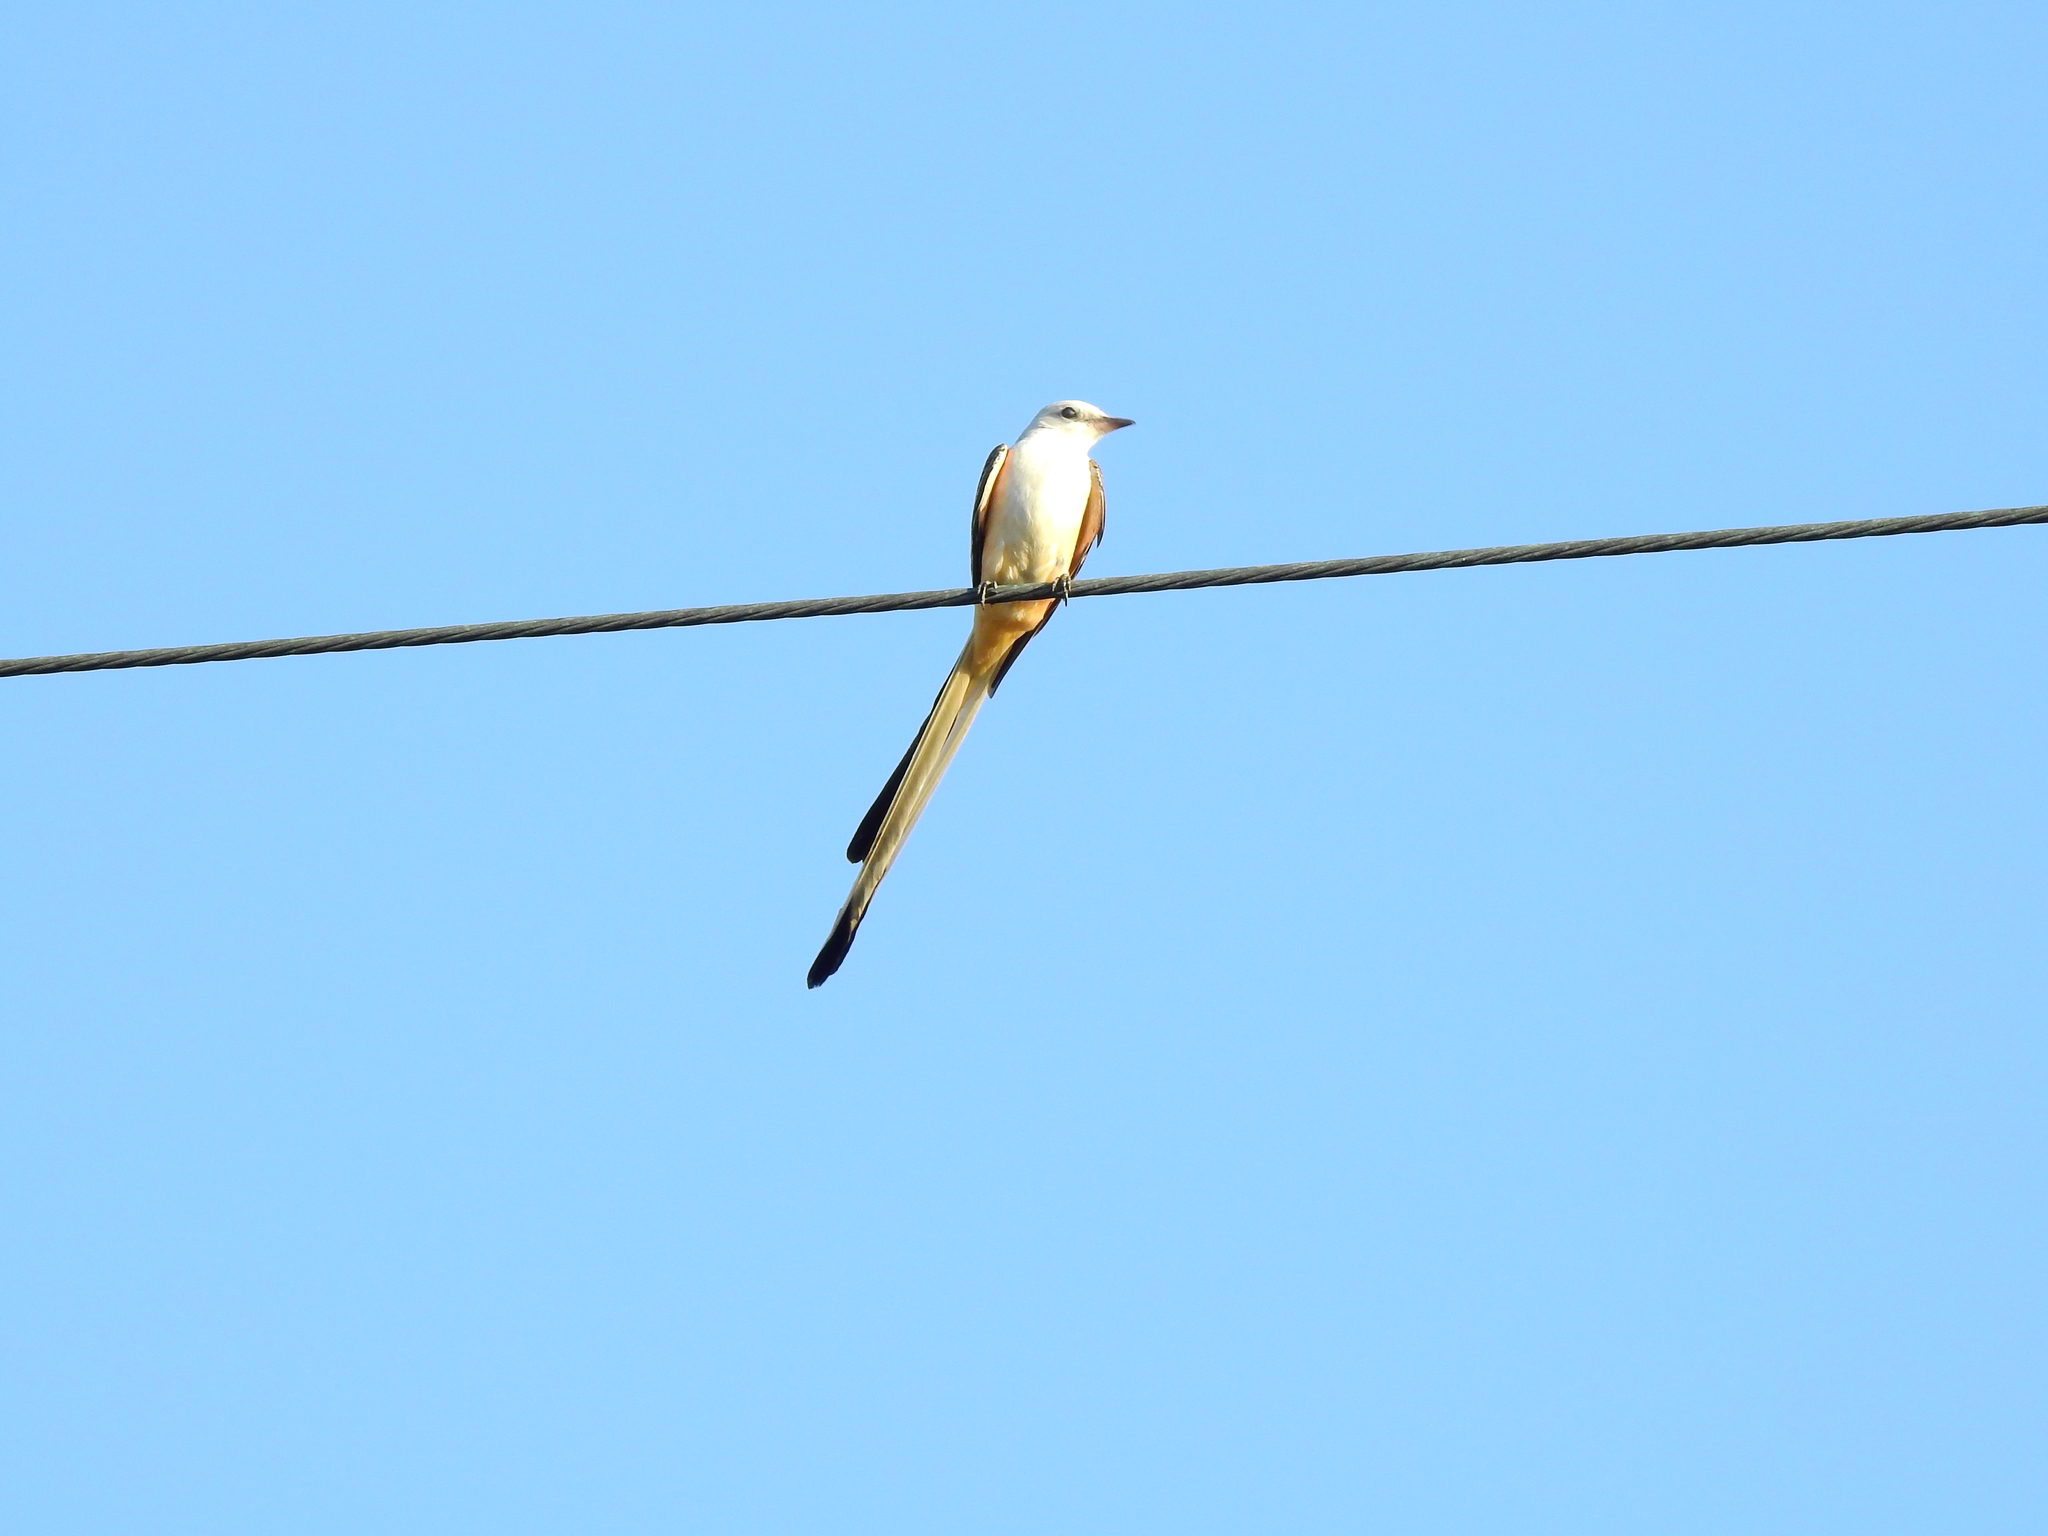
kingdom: Animalia
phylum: Chordata
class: Aves
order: Passeriformes
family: Tyrannidae
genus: Tyrannus
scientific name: Tyrannus forficatus
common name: Scissor-tailed flycatcher
